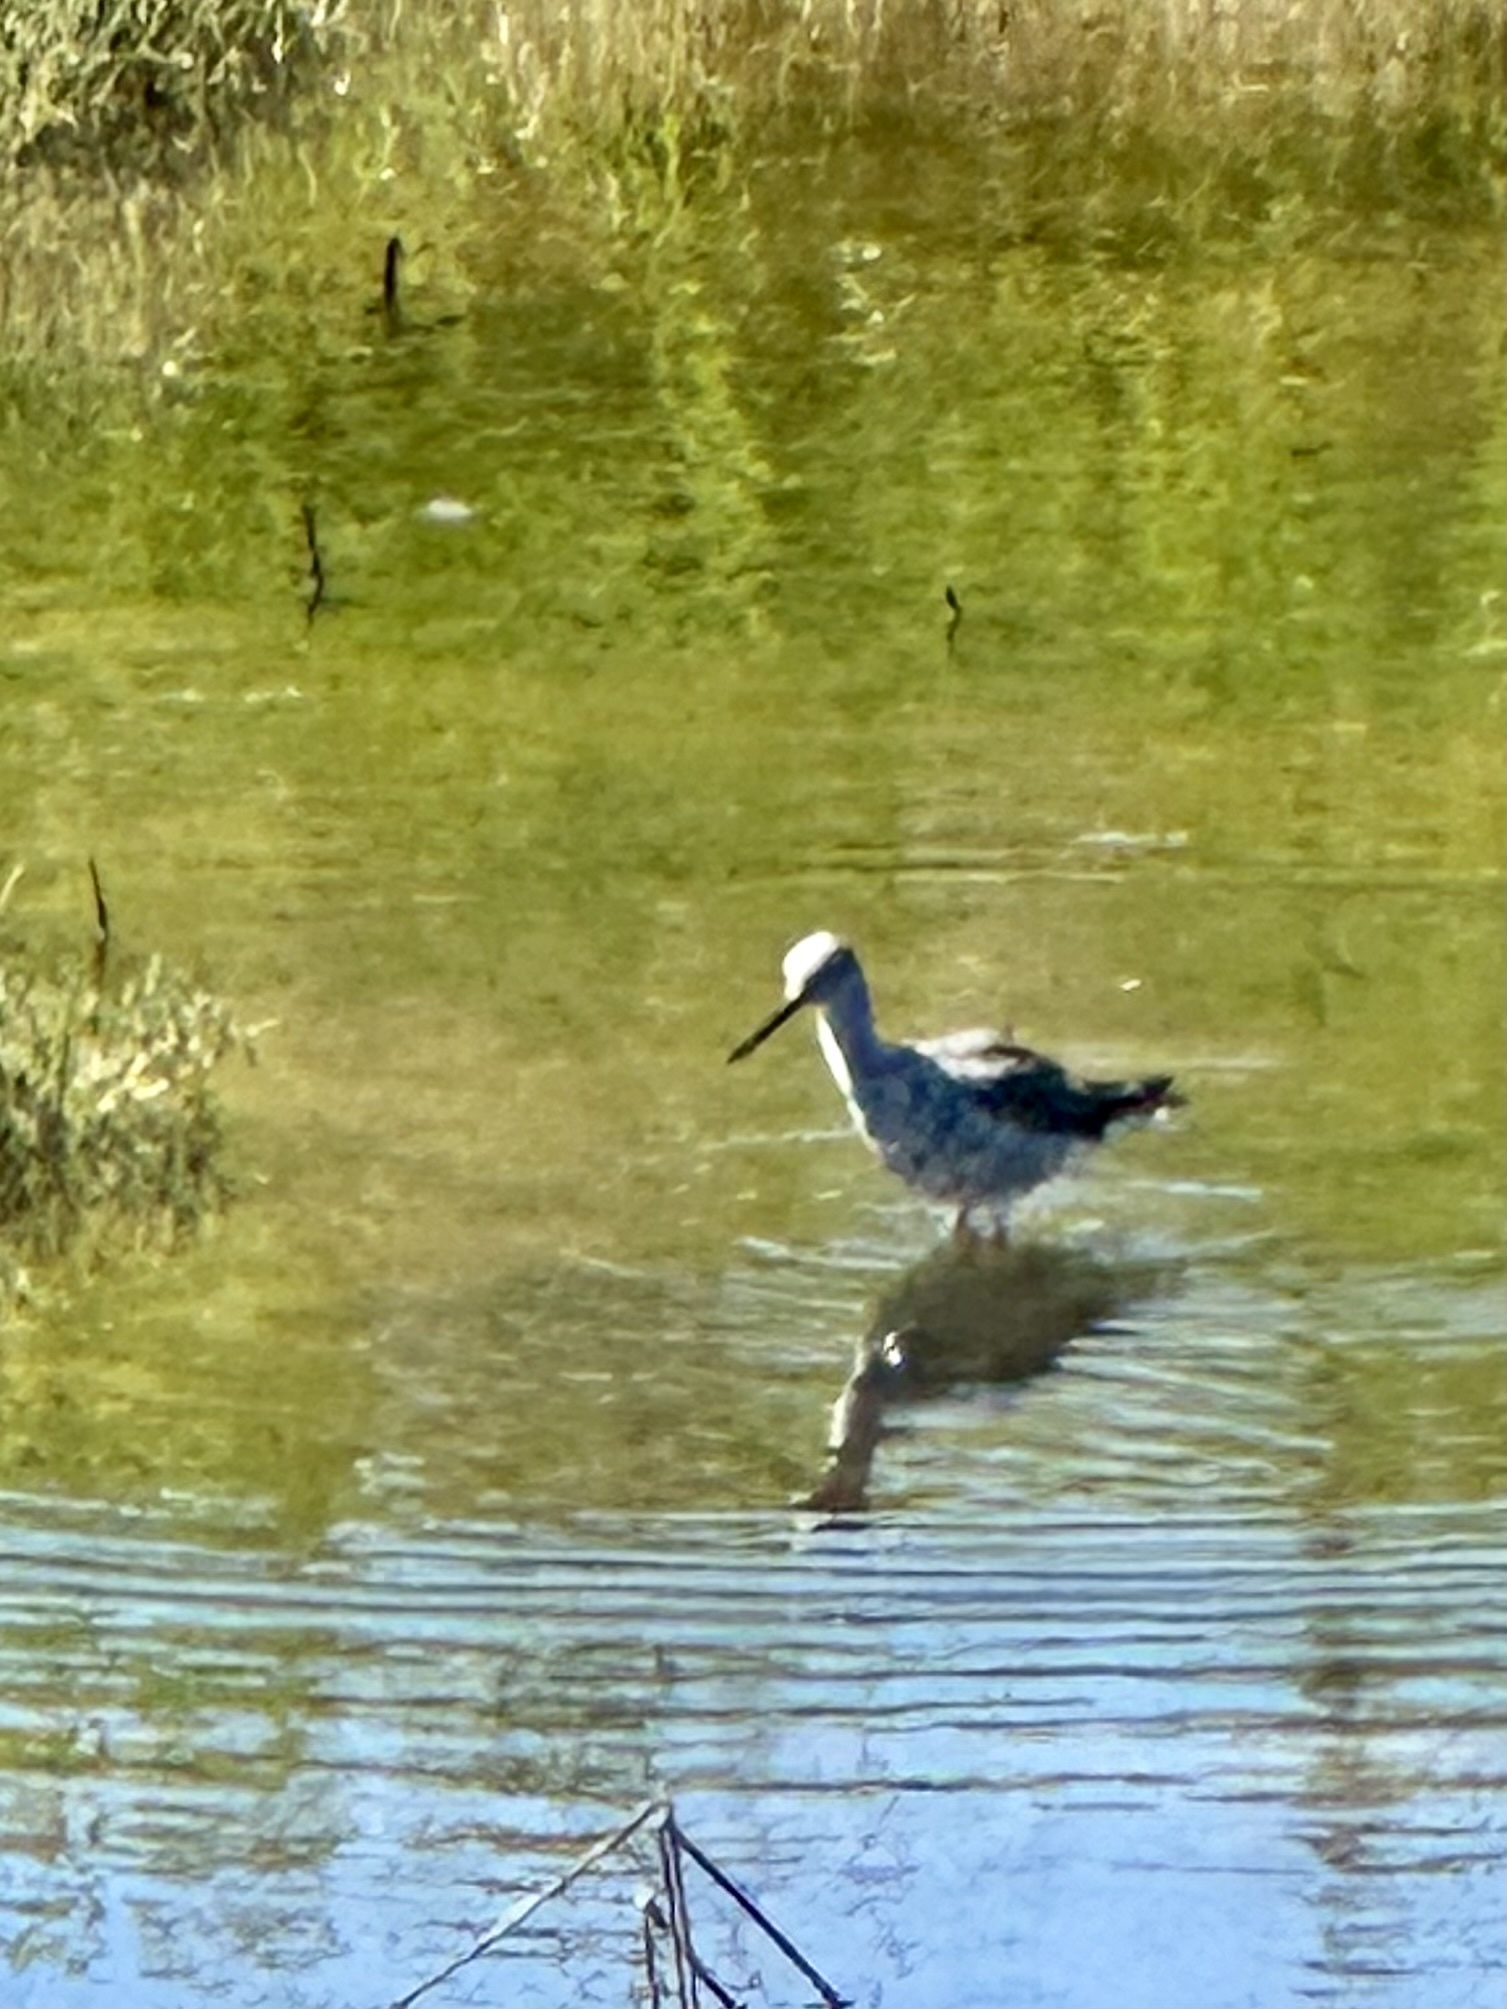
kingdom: Animalia
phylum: Chordata
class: Aves
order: Charadriiformes
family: Scolopacidae
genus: Tringa
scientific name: Tringa melanoleuca
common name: Greater yellowlegs
